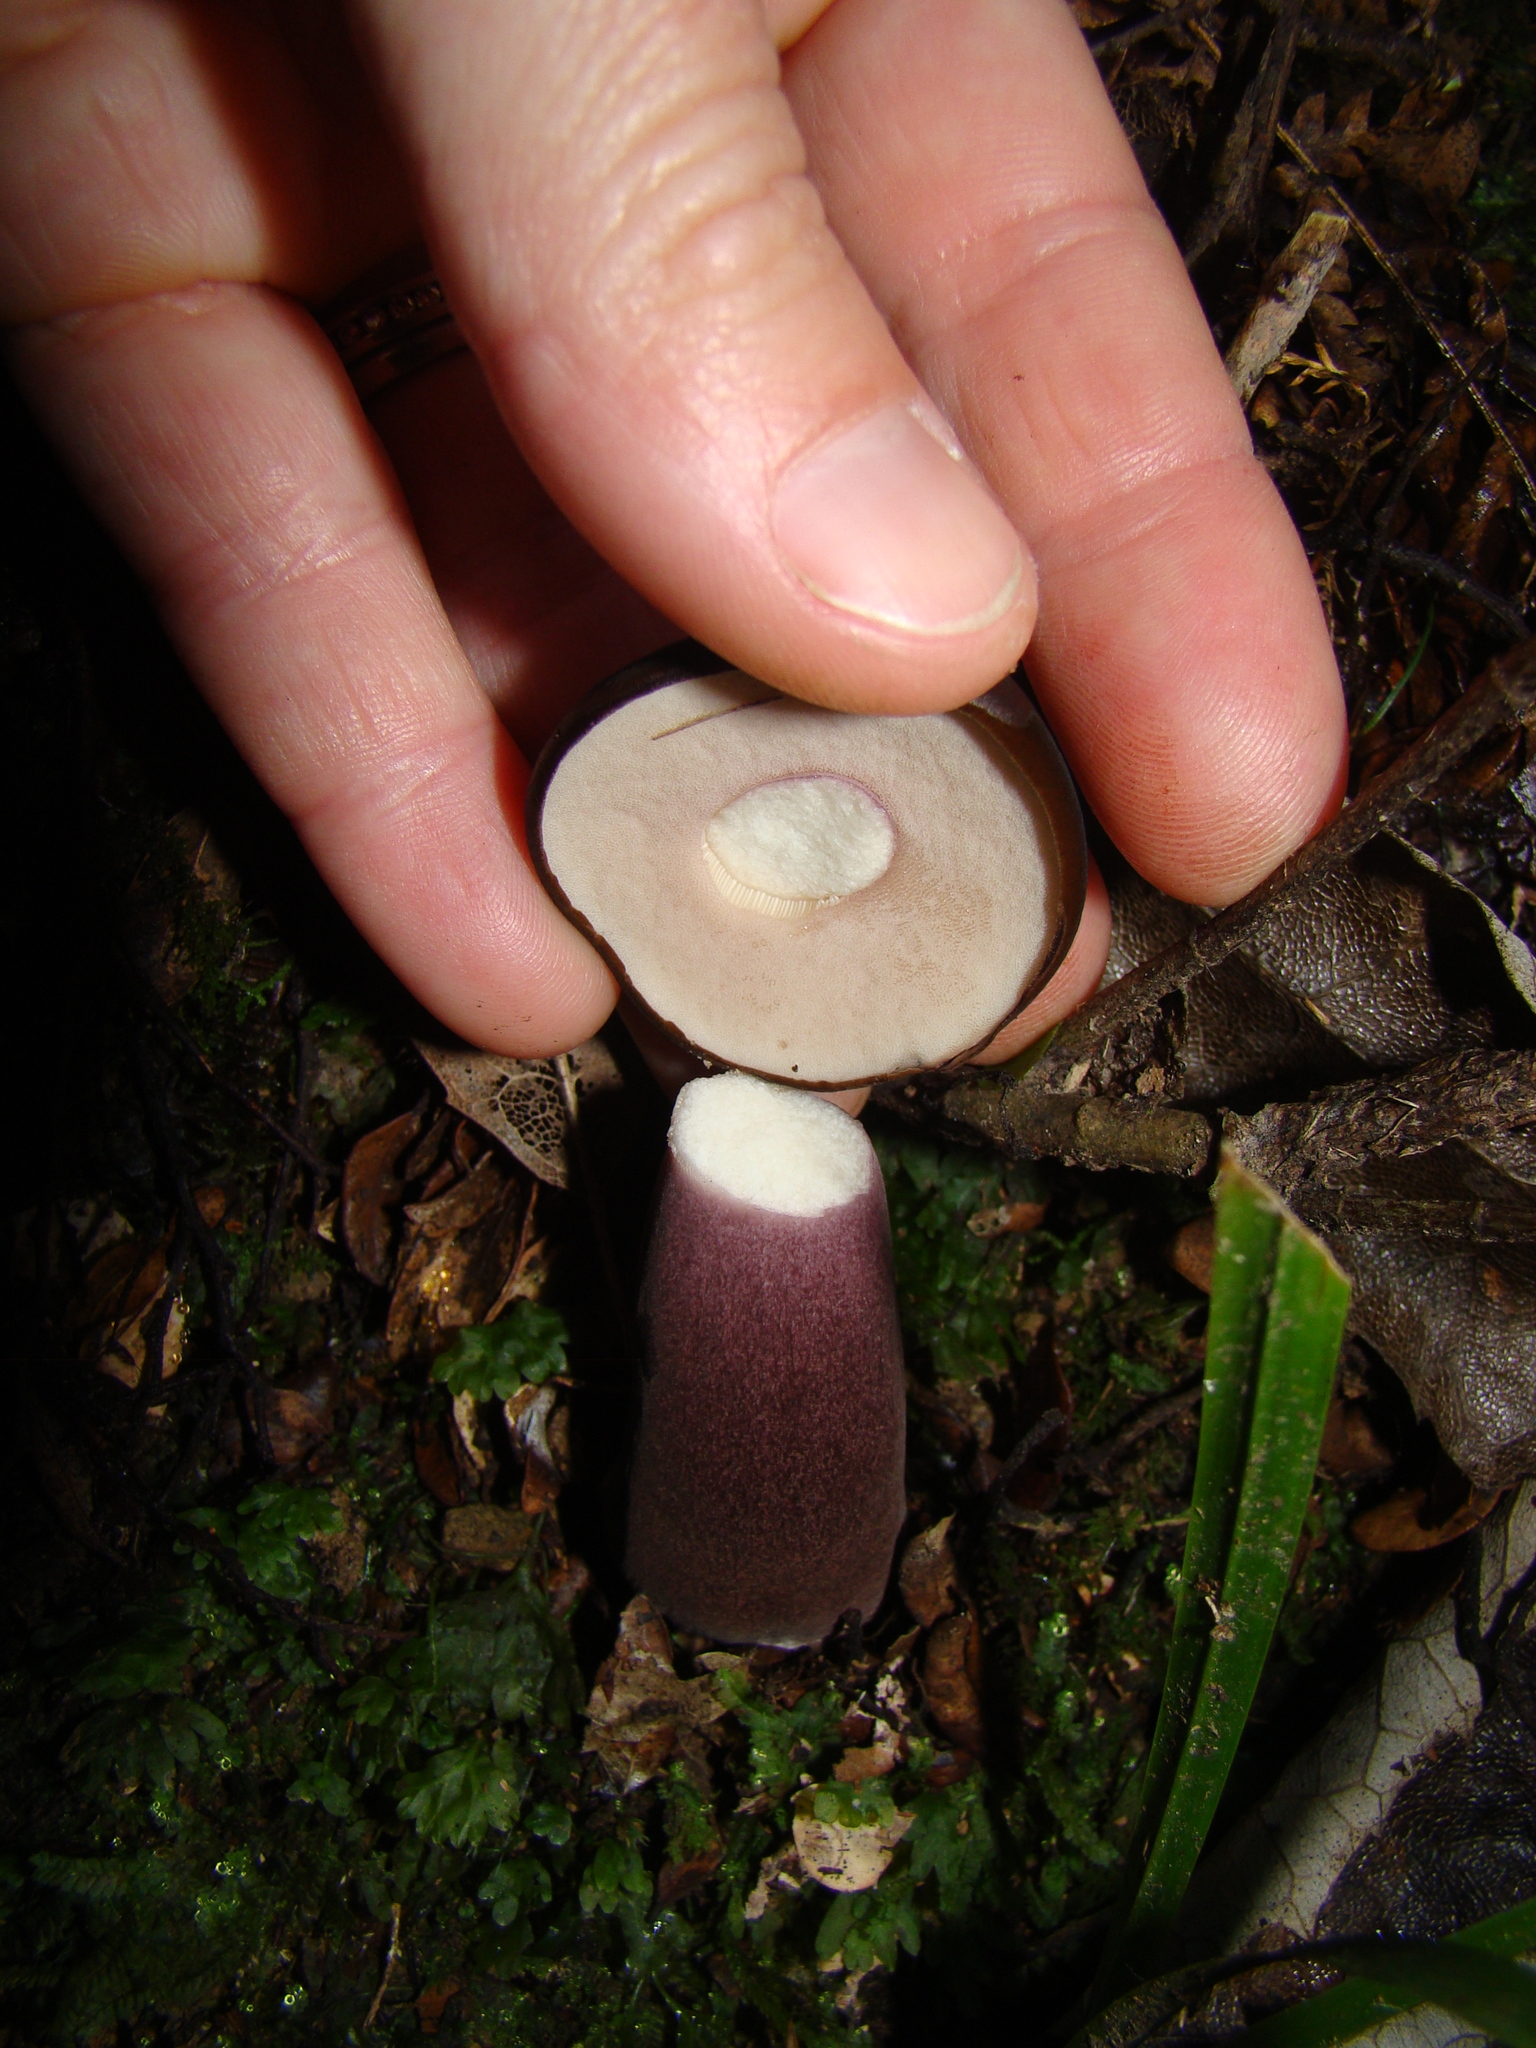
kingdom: Fungi
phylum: Basidiomycota
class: Agaricomycetes
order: Boletales
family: Boletaceae
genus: Porphyrellus
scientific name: Porphyrellus formosus
